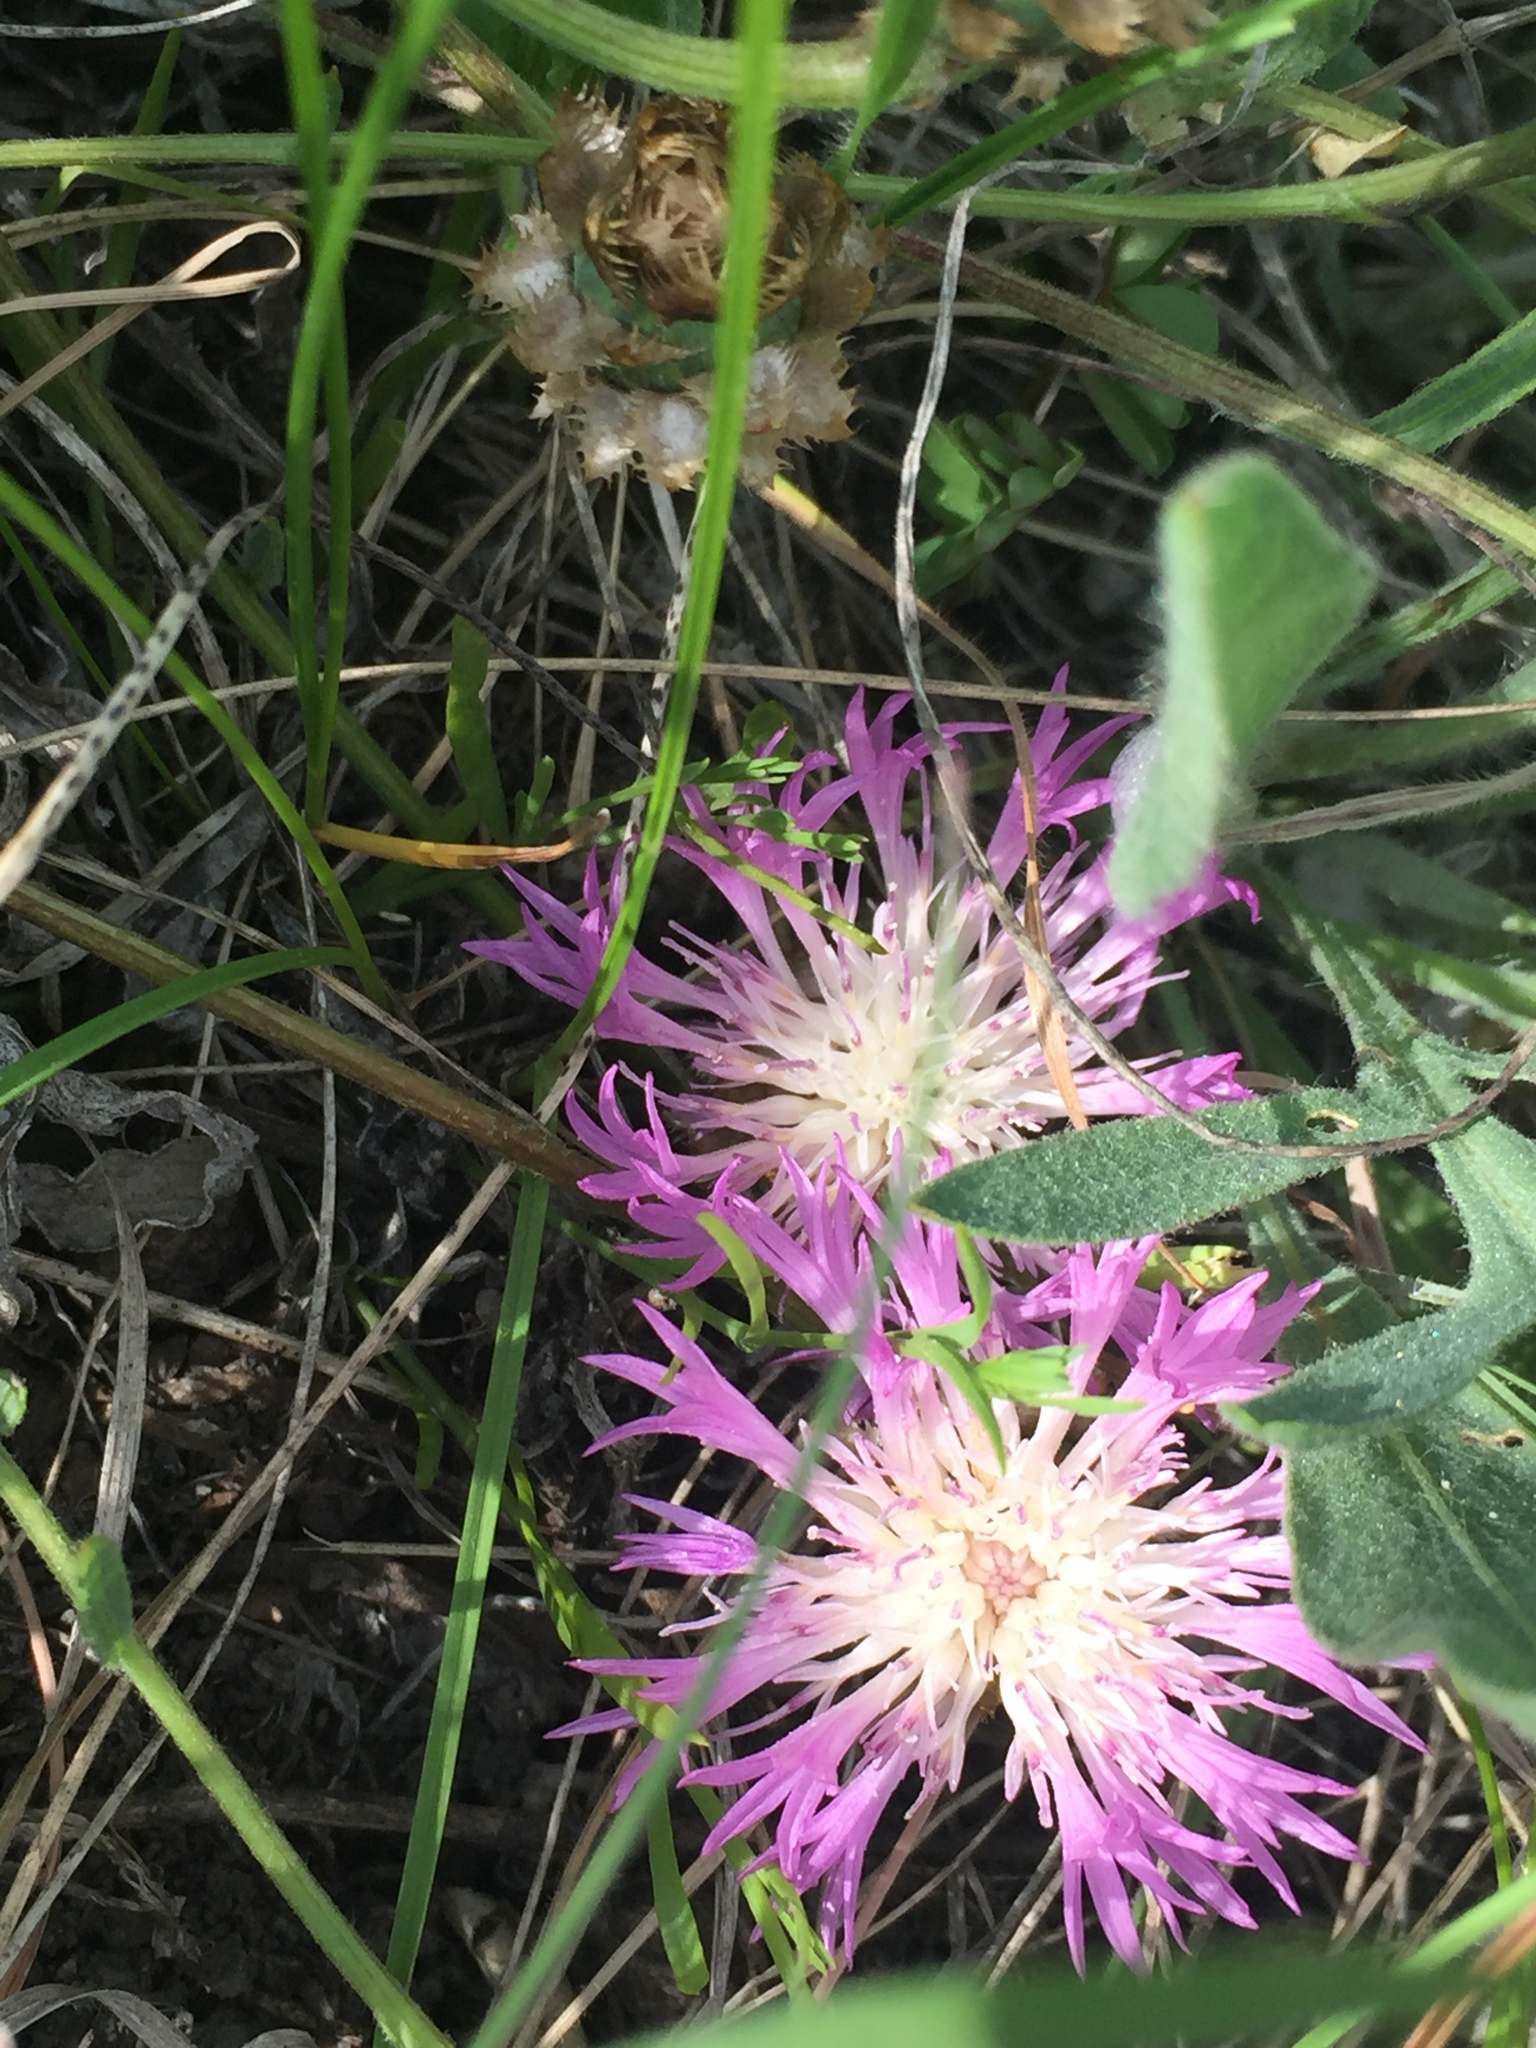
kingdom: Plantae
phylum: Tracheophyta
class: Magnoliopsida
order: Asterales
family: Asteraceae
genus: Psephellus
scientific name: Psephellus marschallianus
